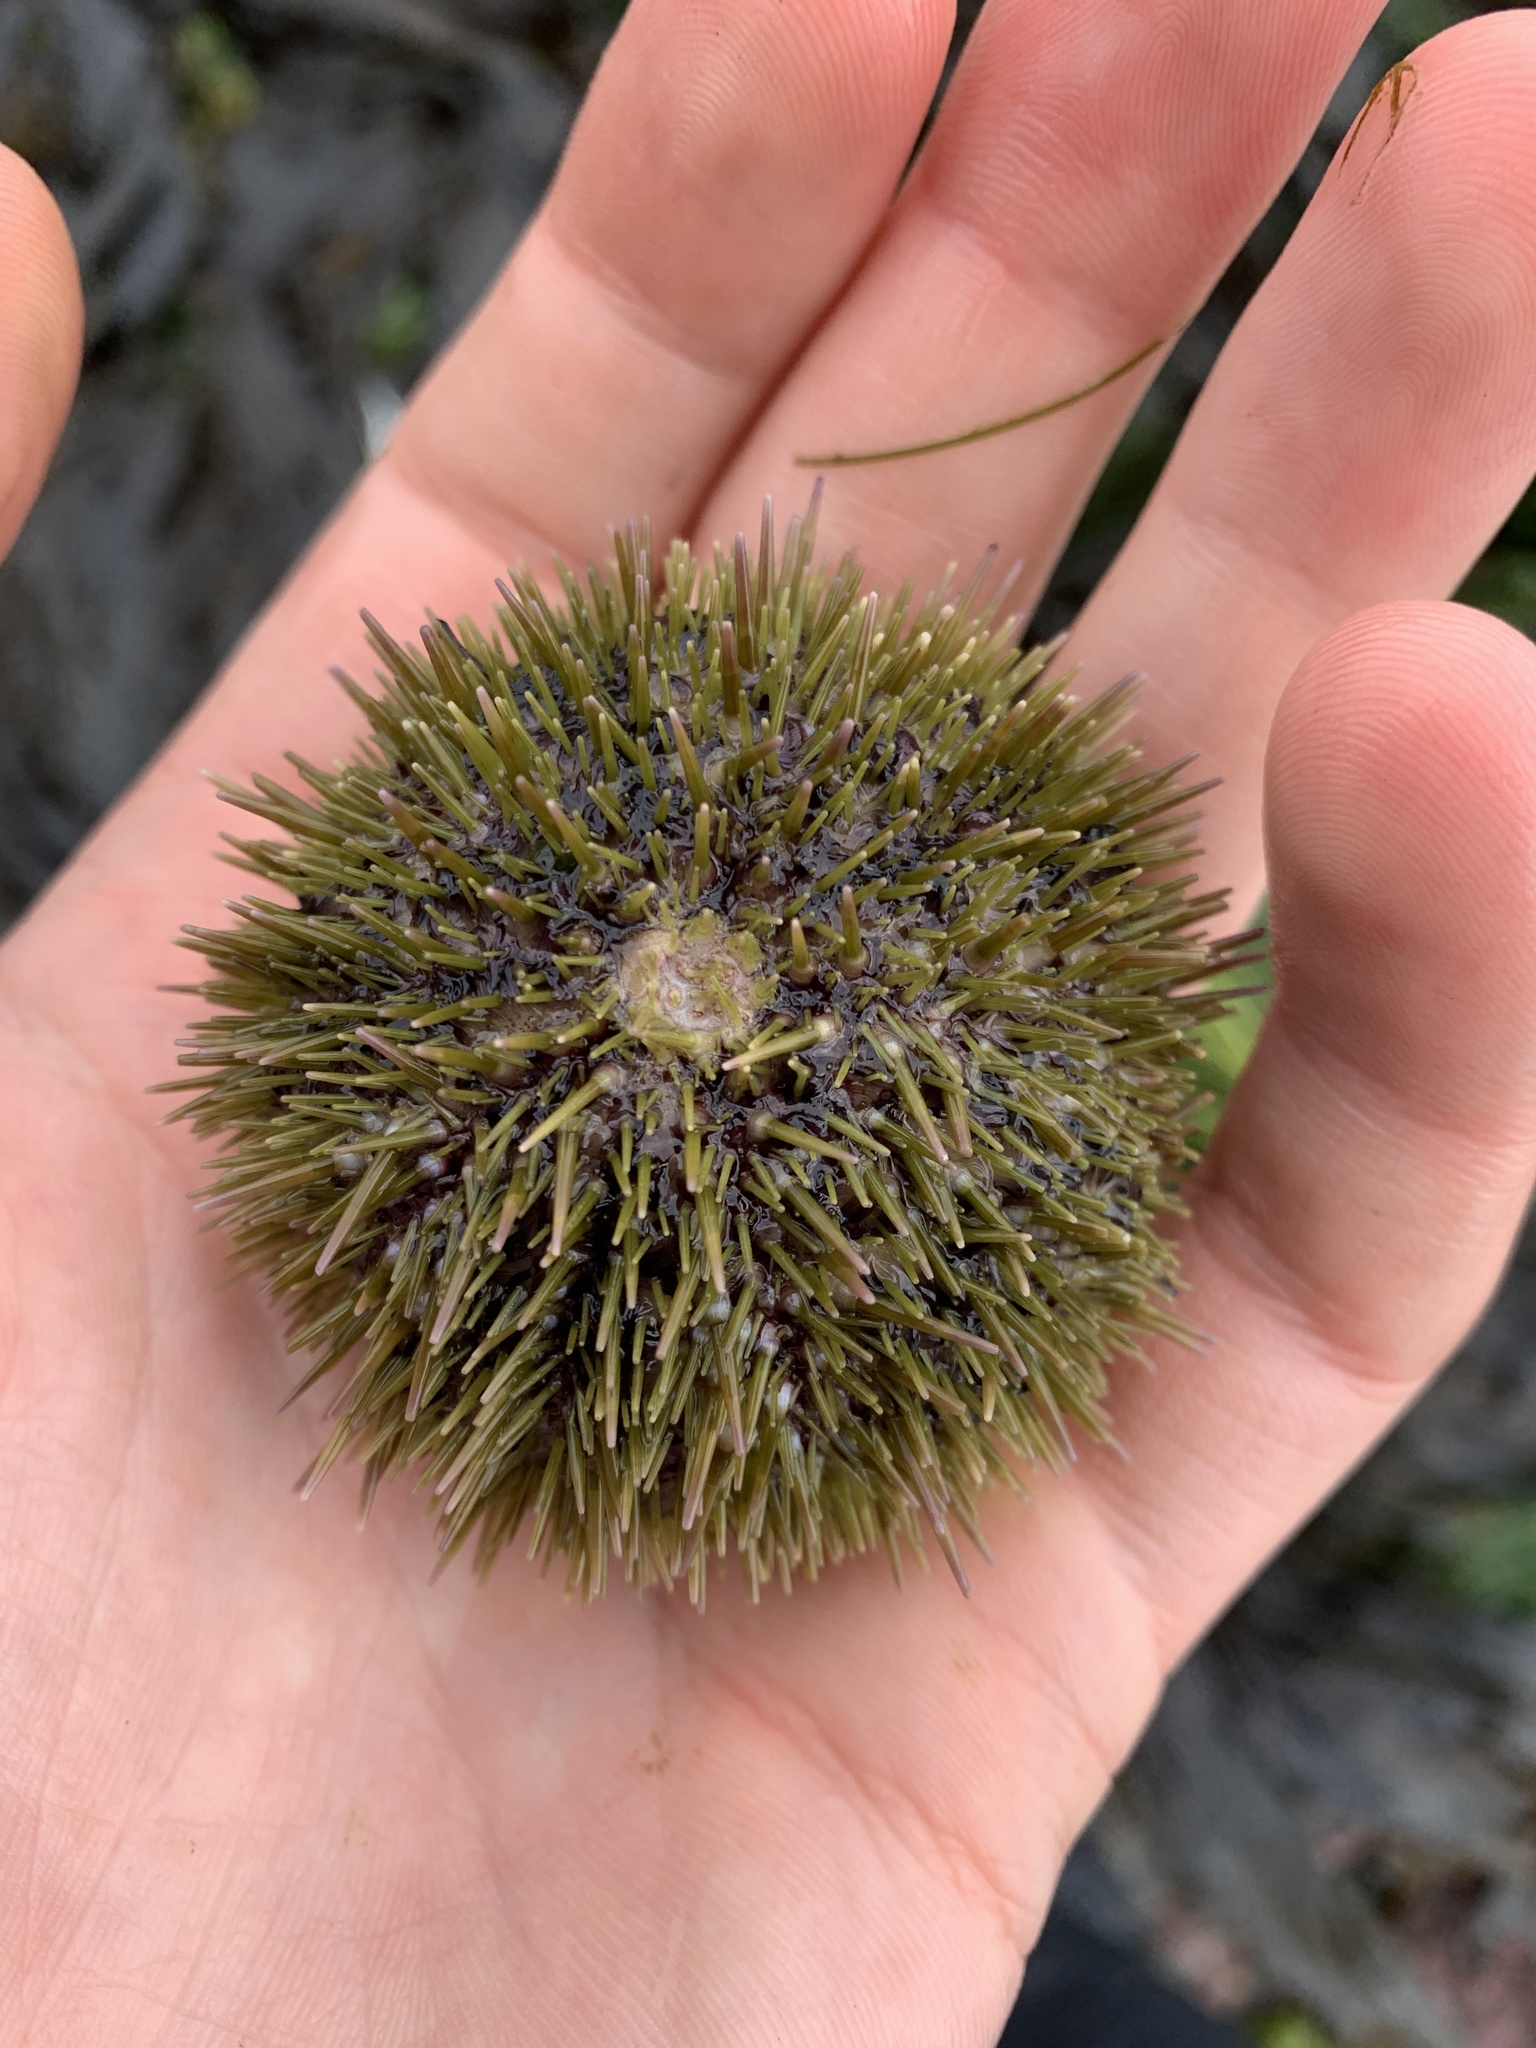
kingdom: Animalia
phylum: Echinodermata
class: Echinoidea
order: Camarodonta
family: Strongylocentrotidae
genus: Strongylocentrotus
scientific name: Strongylocentrotus droebachiensis
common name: Northern sea urchin
